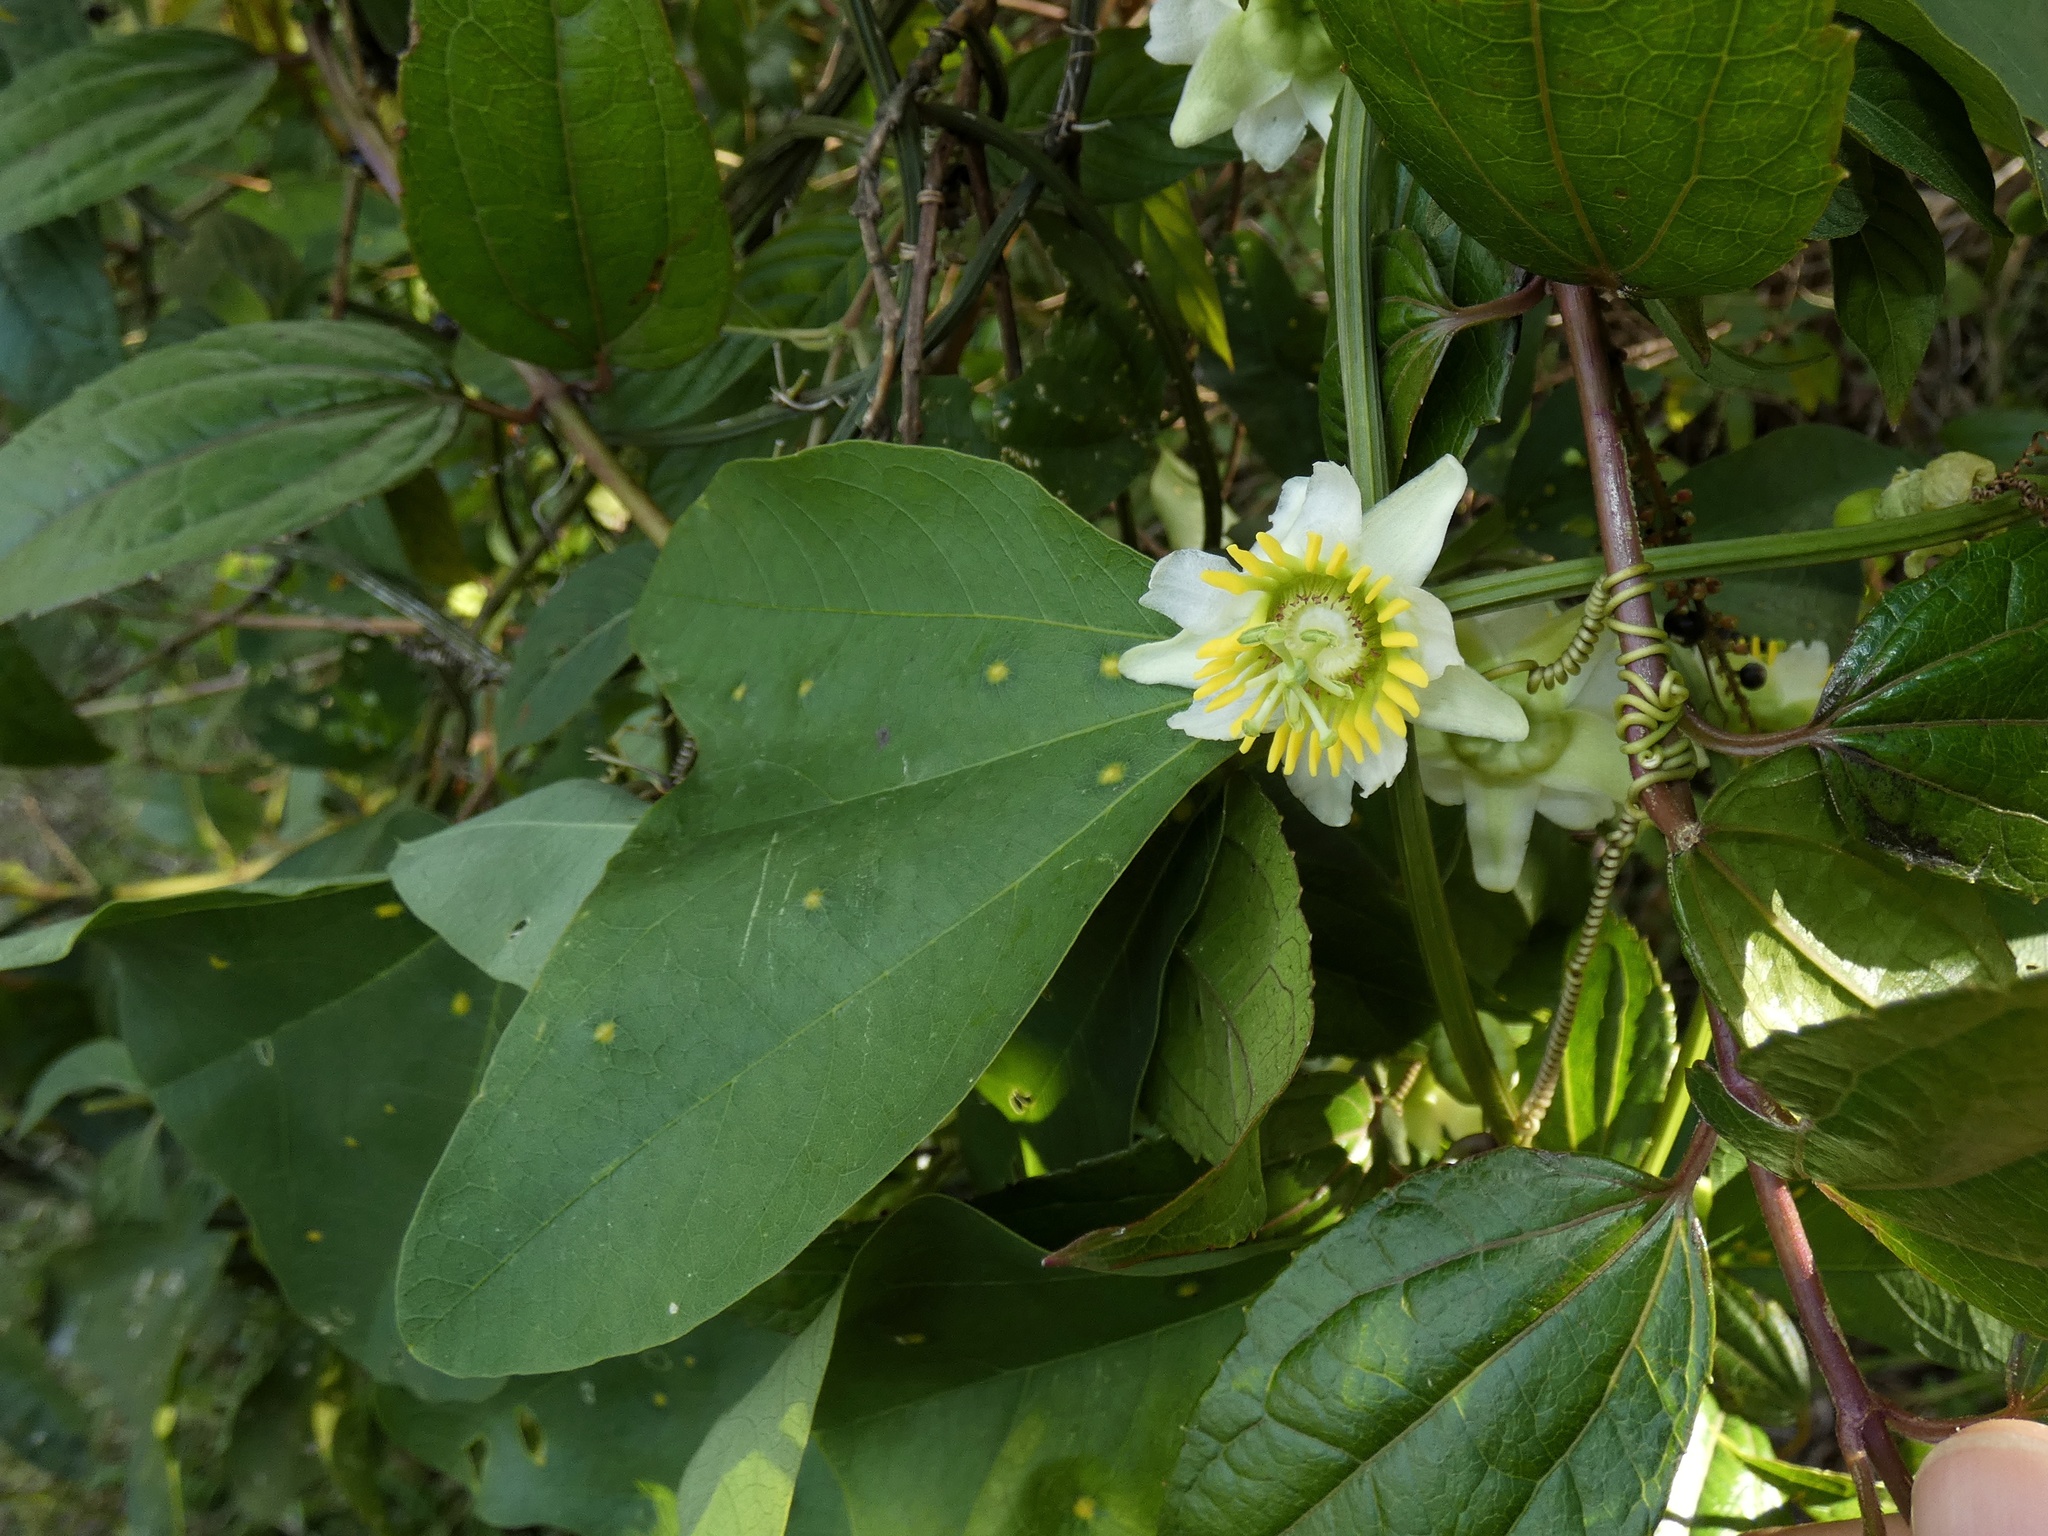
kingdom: Plantae
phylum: Tracheophyta
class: Magnoliopsida
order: Malpighiales
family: Passifloraceae
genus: Passiflora
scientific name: Passiflora biflora
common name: Twoflower passionflower
